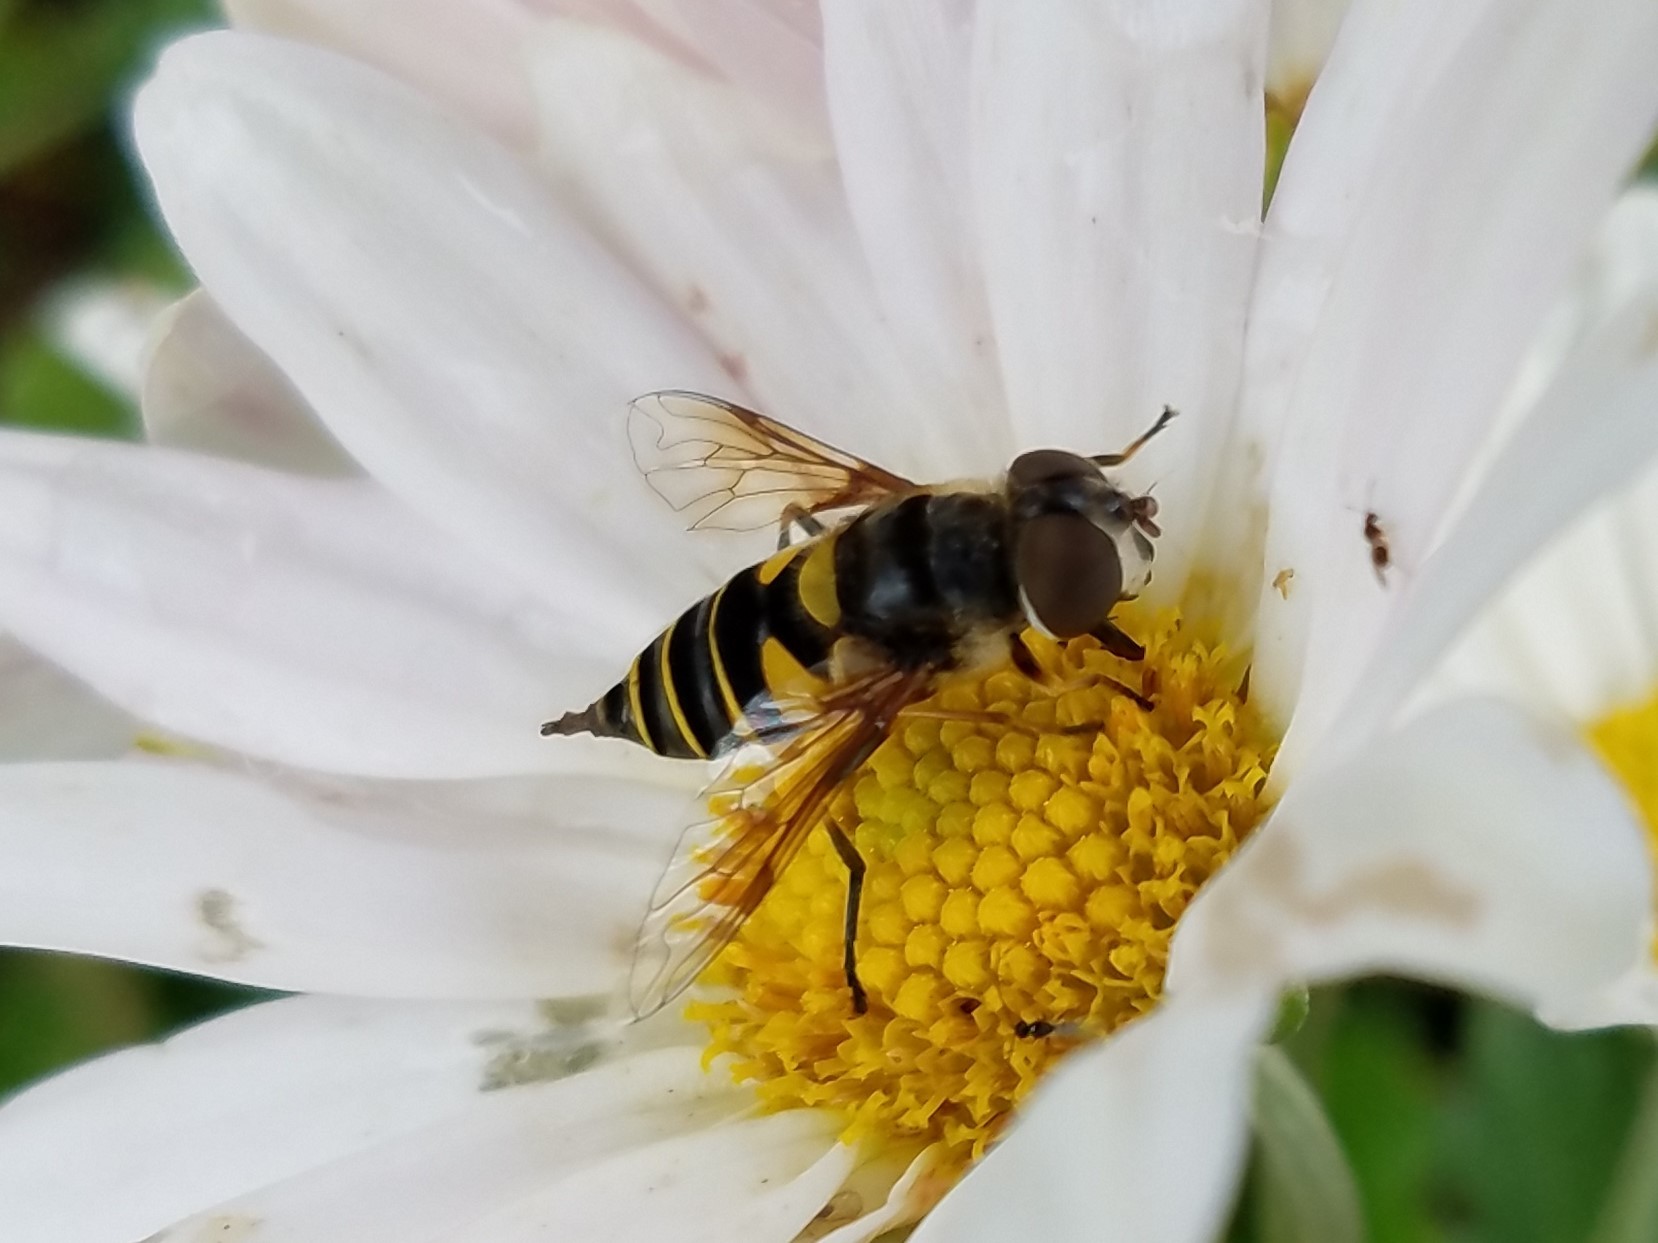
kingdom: Animalia
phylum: Arthropoda
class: Insecta
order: Diptera
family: Syrphidae
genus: Eristalis
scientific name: Eristalis transversa
